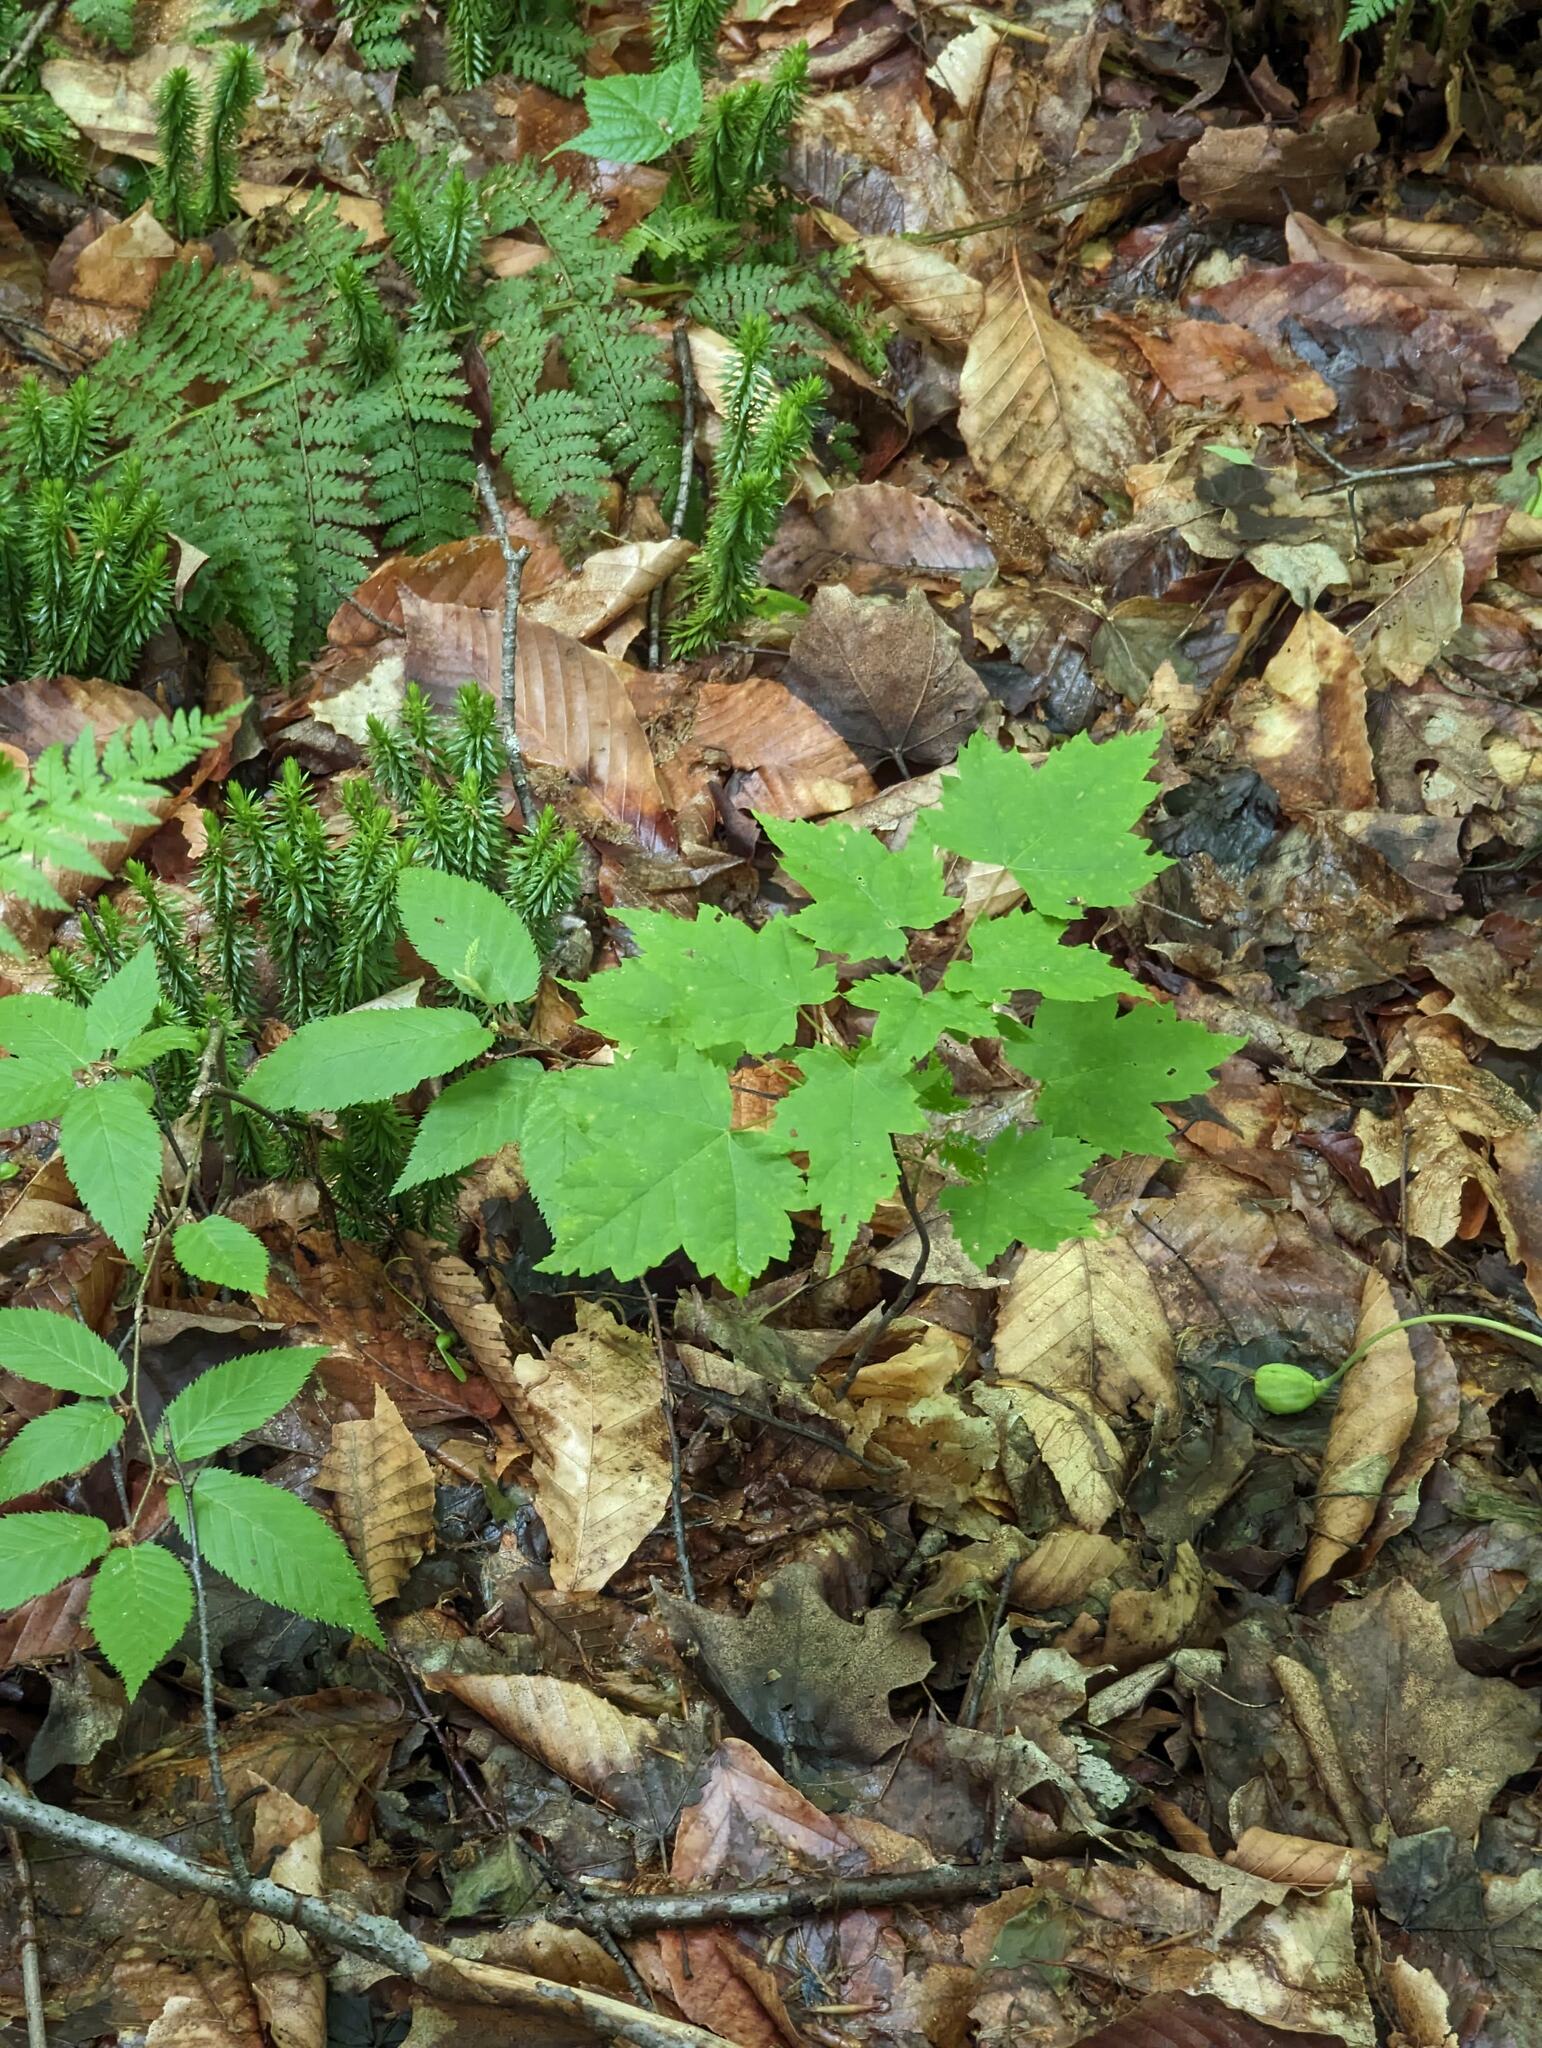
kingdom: Plantae
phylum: Tracheophyta
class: Magnoliopsida
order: Sapindales
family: Sapindaceae
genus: Acer
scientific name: Acer spicatum
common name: Mountain maple
